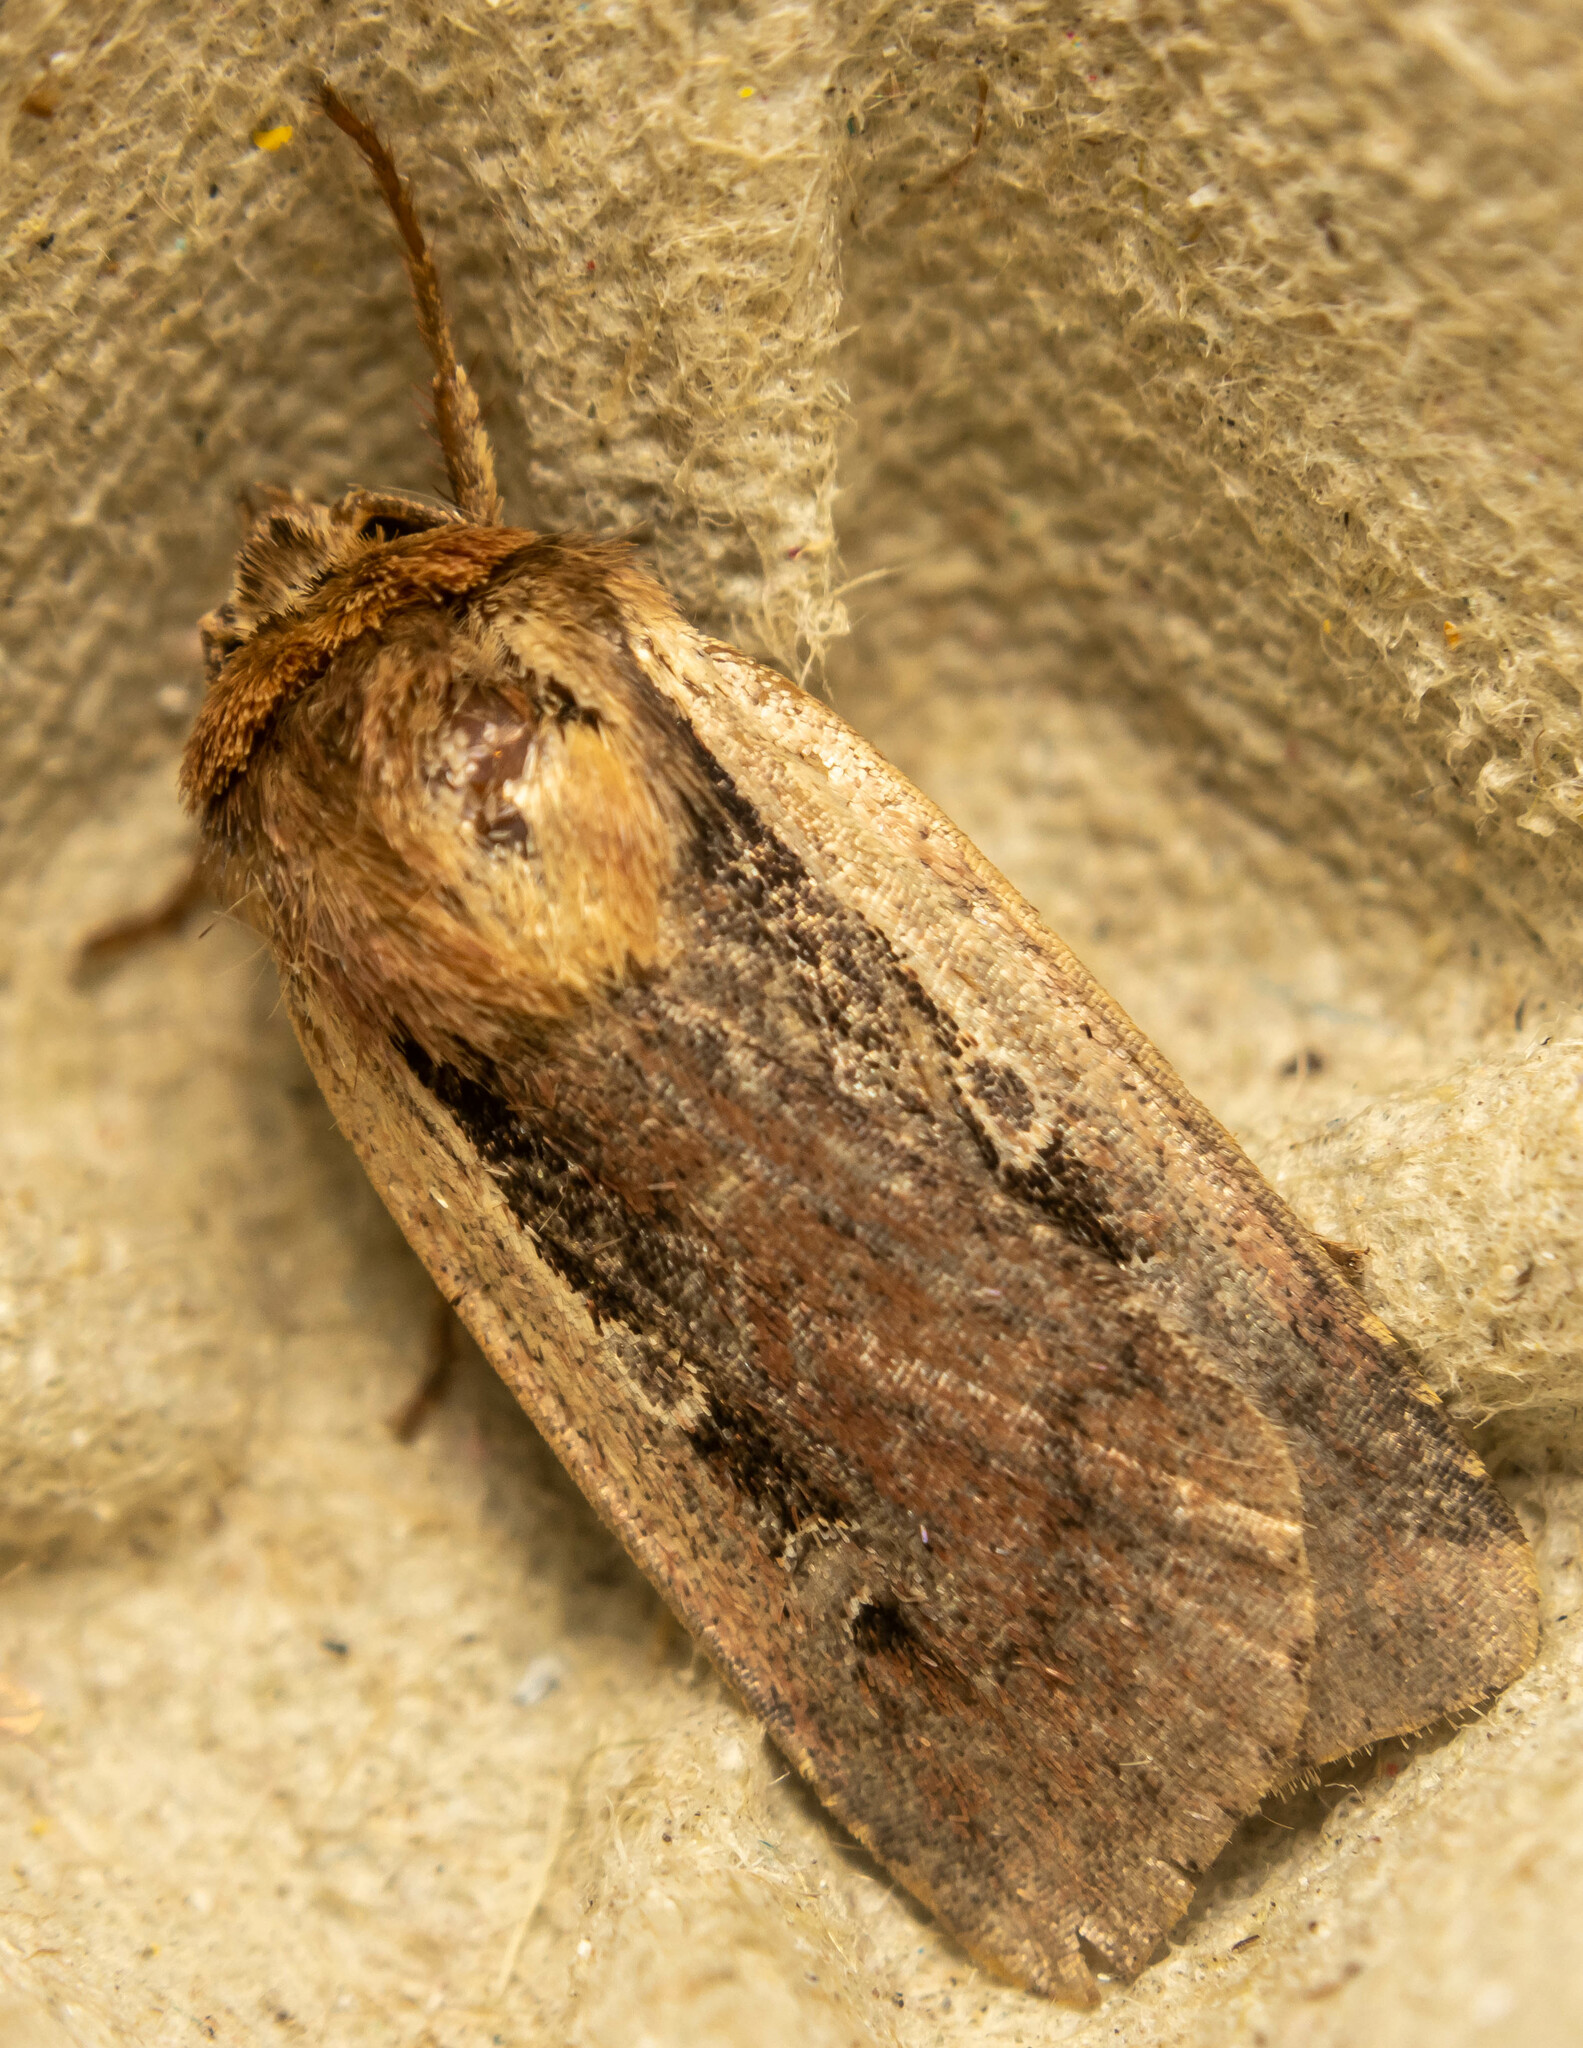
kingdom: Animalia
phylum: Arthropoda
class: Insecta
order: Lepidoptera
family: Noctuidae
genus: Ochropleura
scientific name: Ochropleura plecta
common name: Flame shoulder
